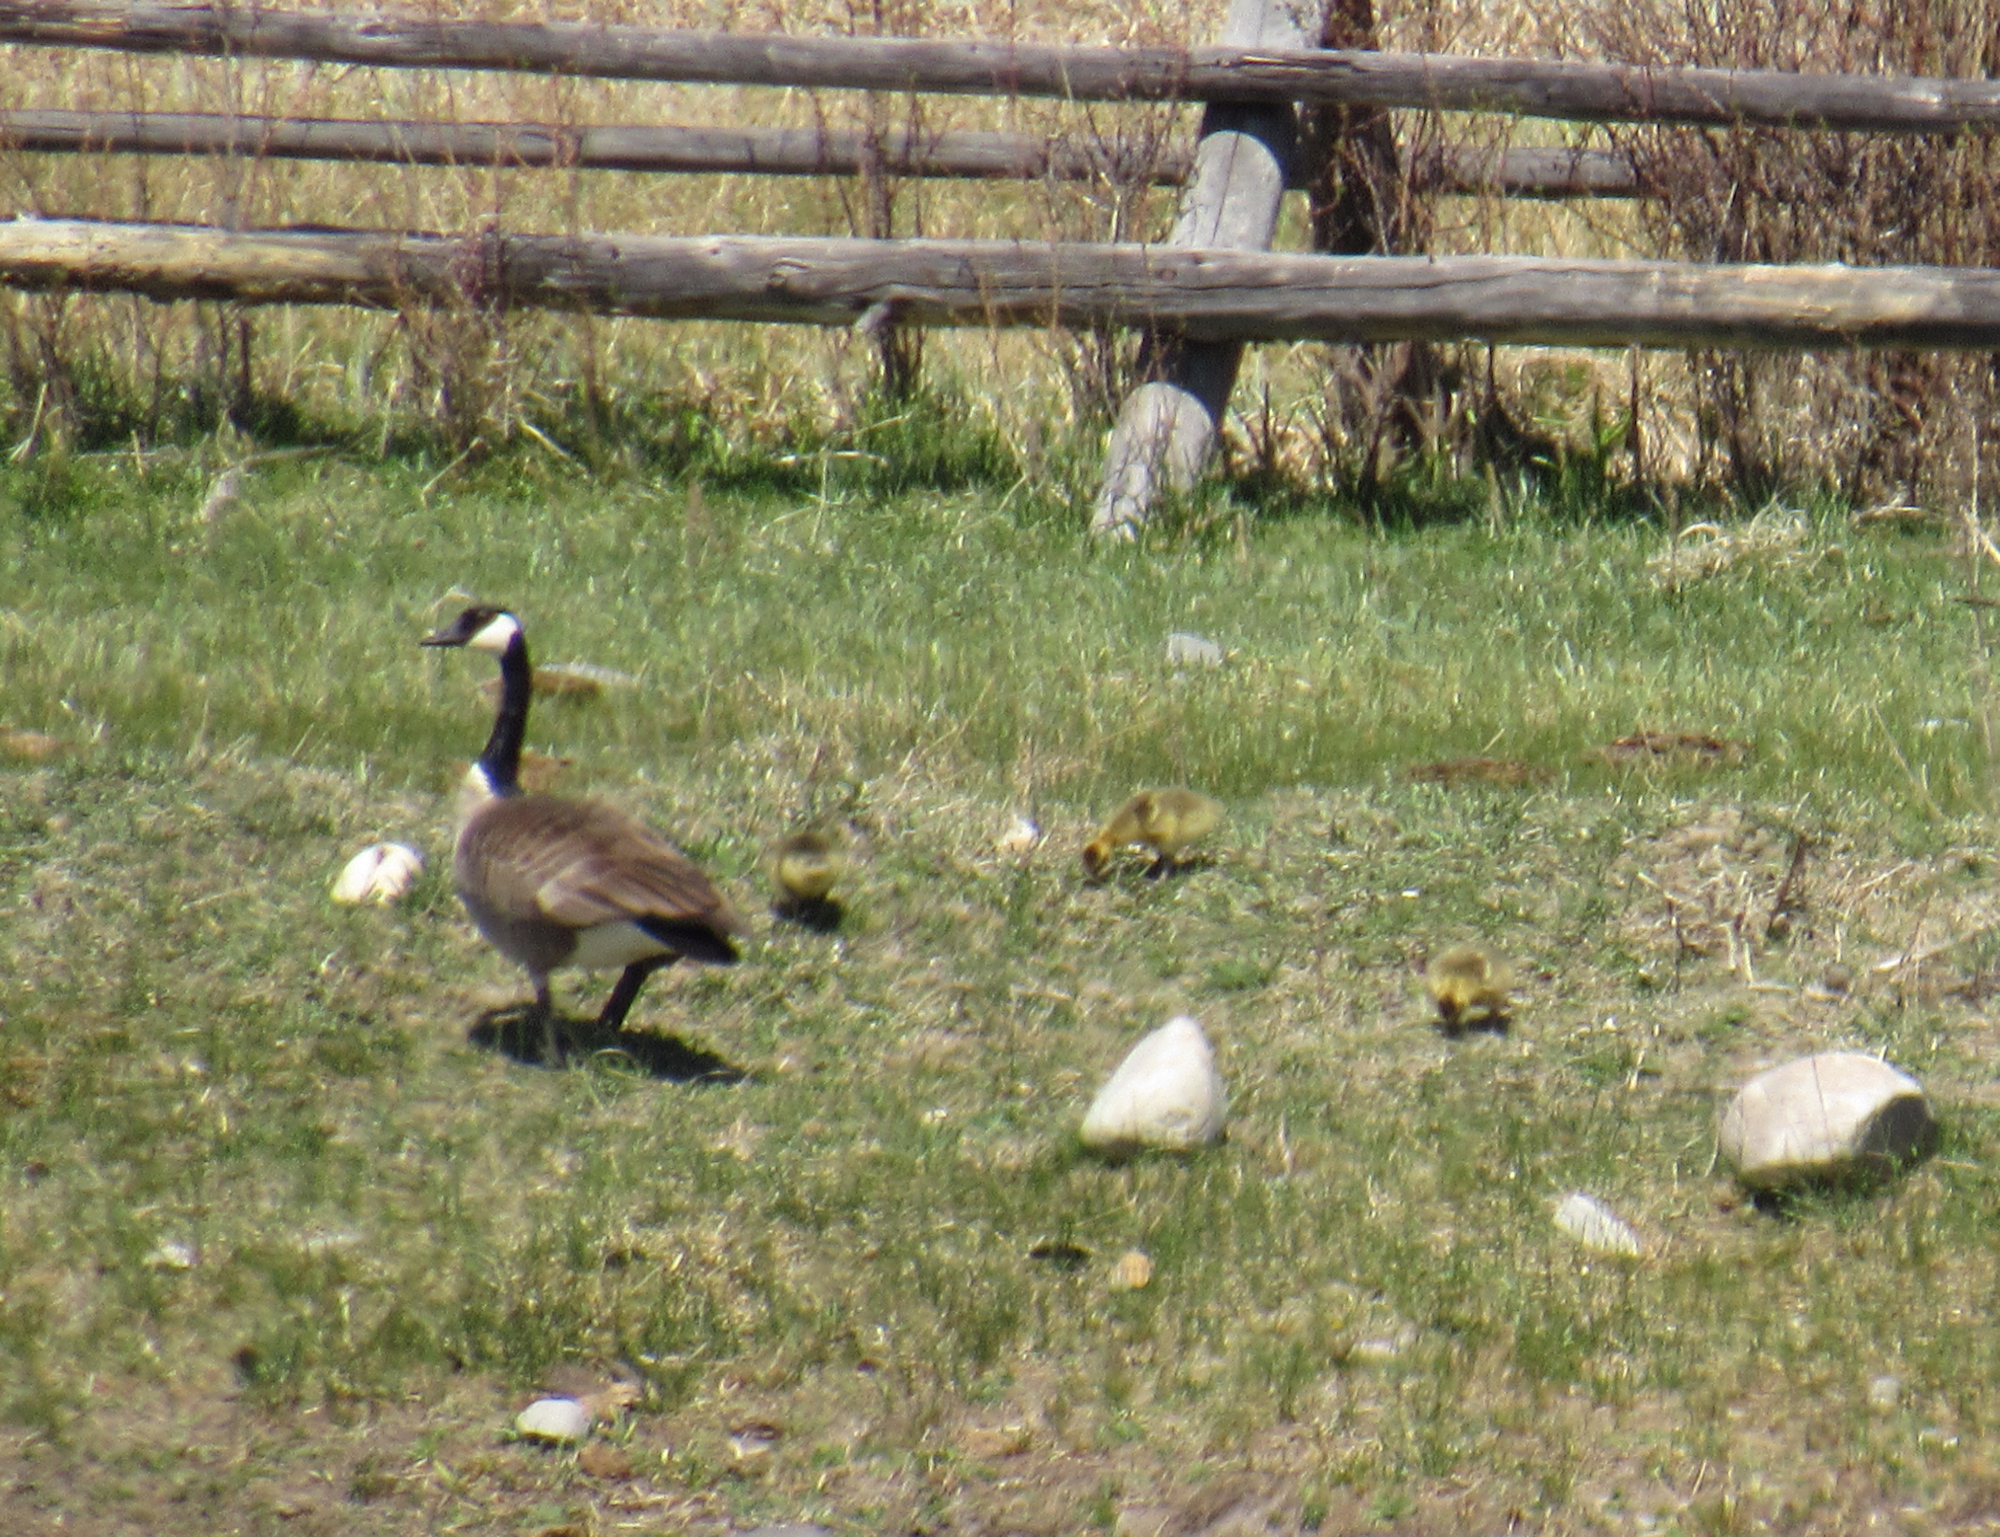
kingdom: Animalia
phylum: Chordata
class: Aves
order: Anseriformes
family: Anatidae
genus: Branta
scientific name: Branta canadensis
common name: Canada goose
